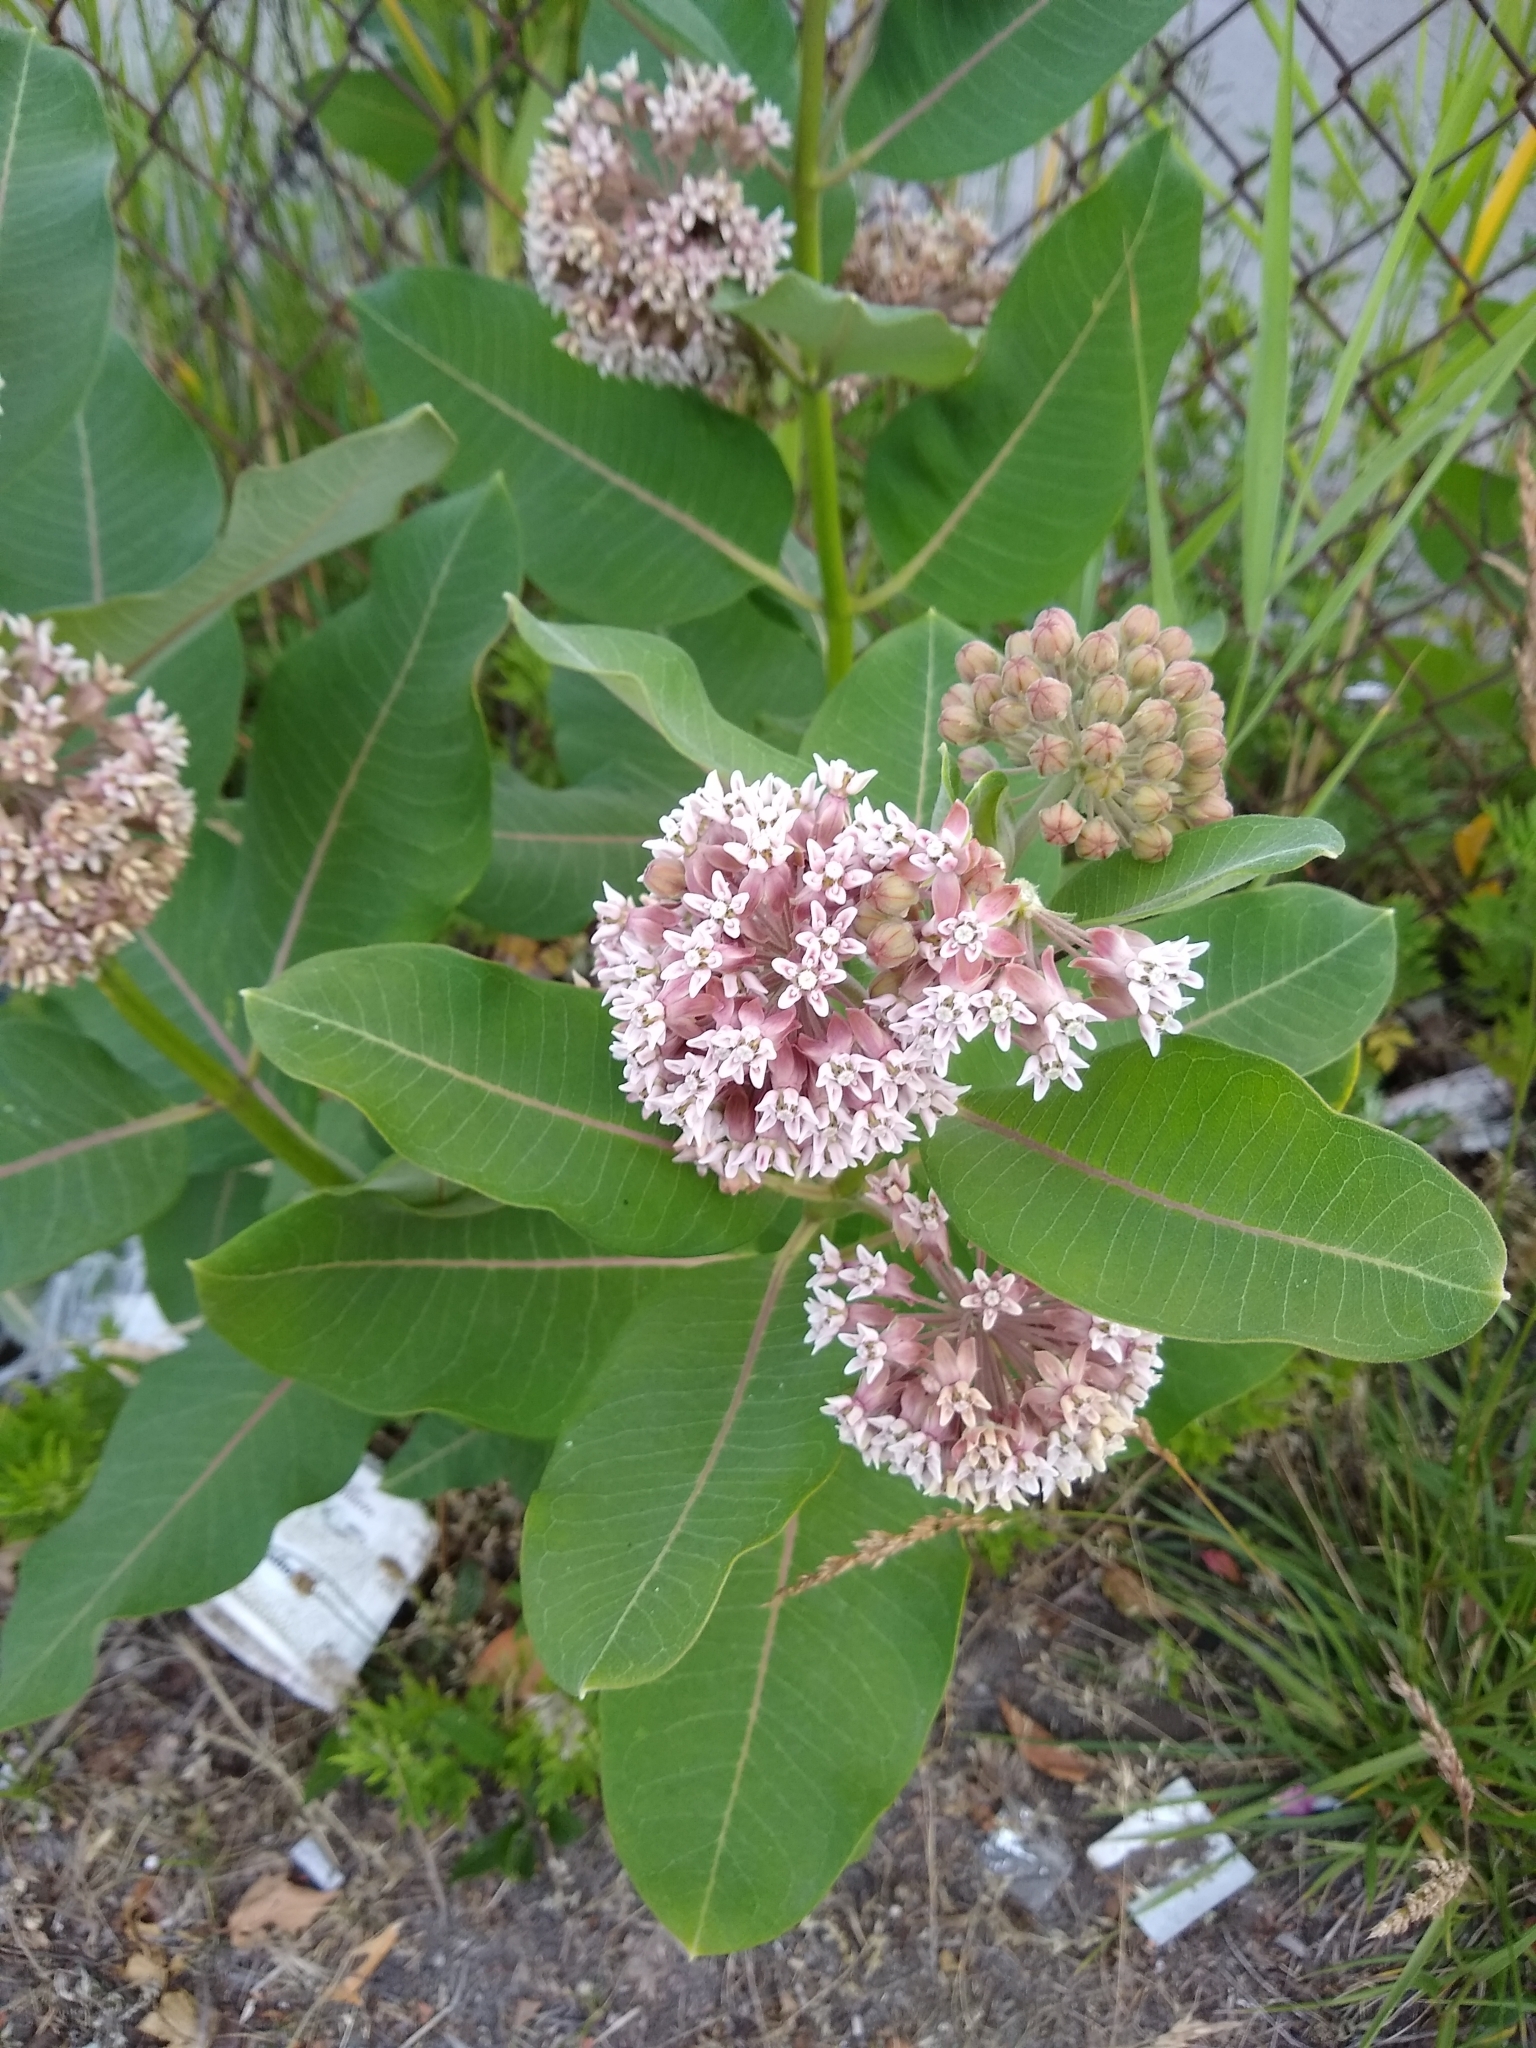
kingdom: Plantae
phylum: Tracheophyta
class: Magnoliopsida
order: Gentianales
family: Apocynaceae
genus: Asclepias
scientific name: Asclepias syriaca
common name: Common milkweed
